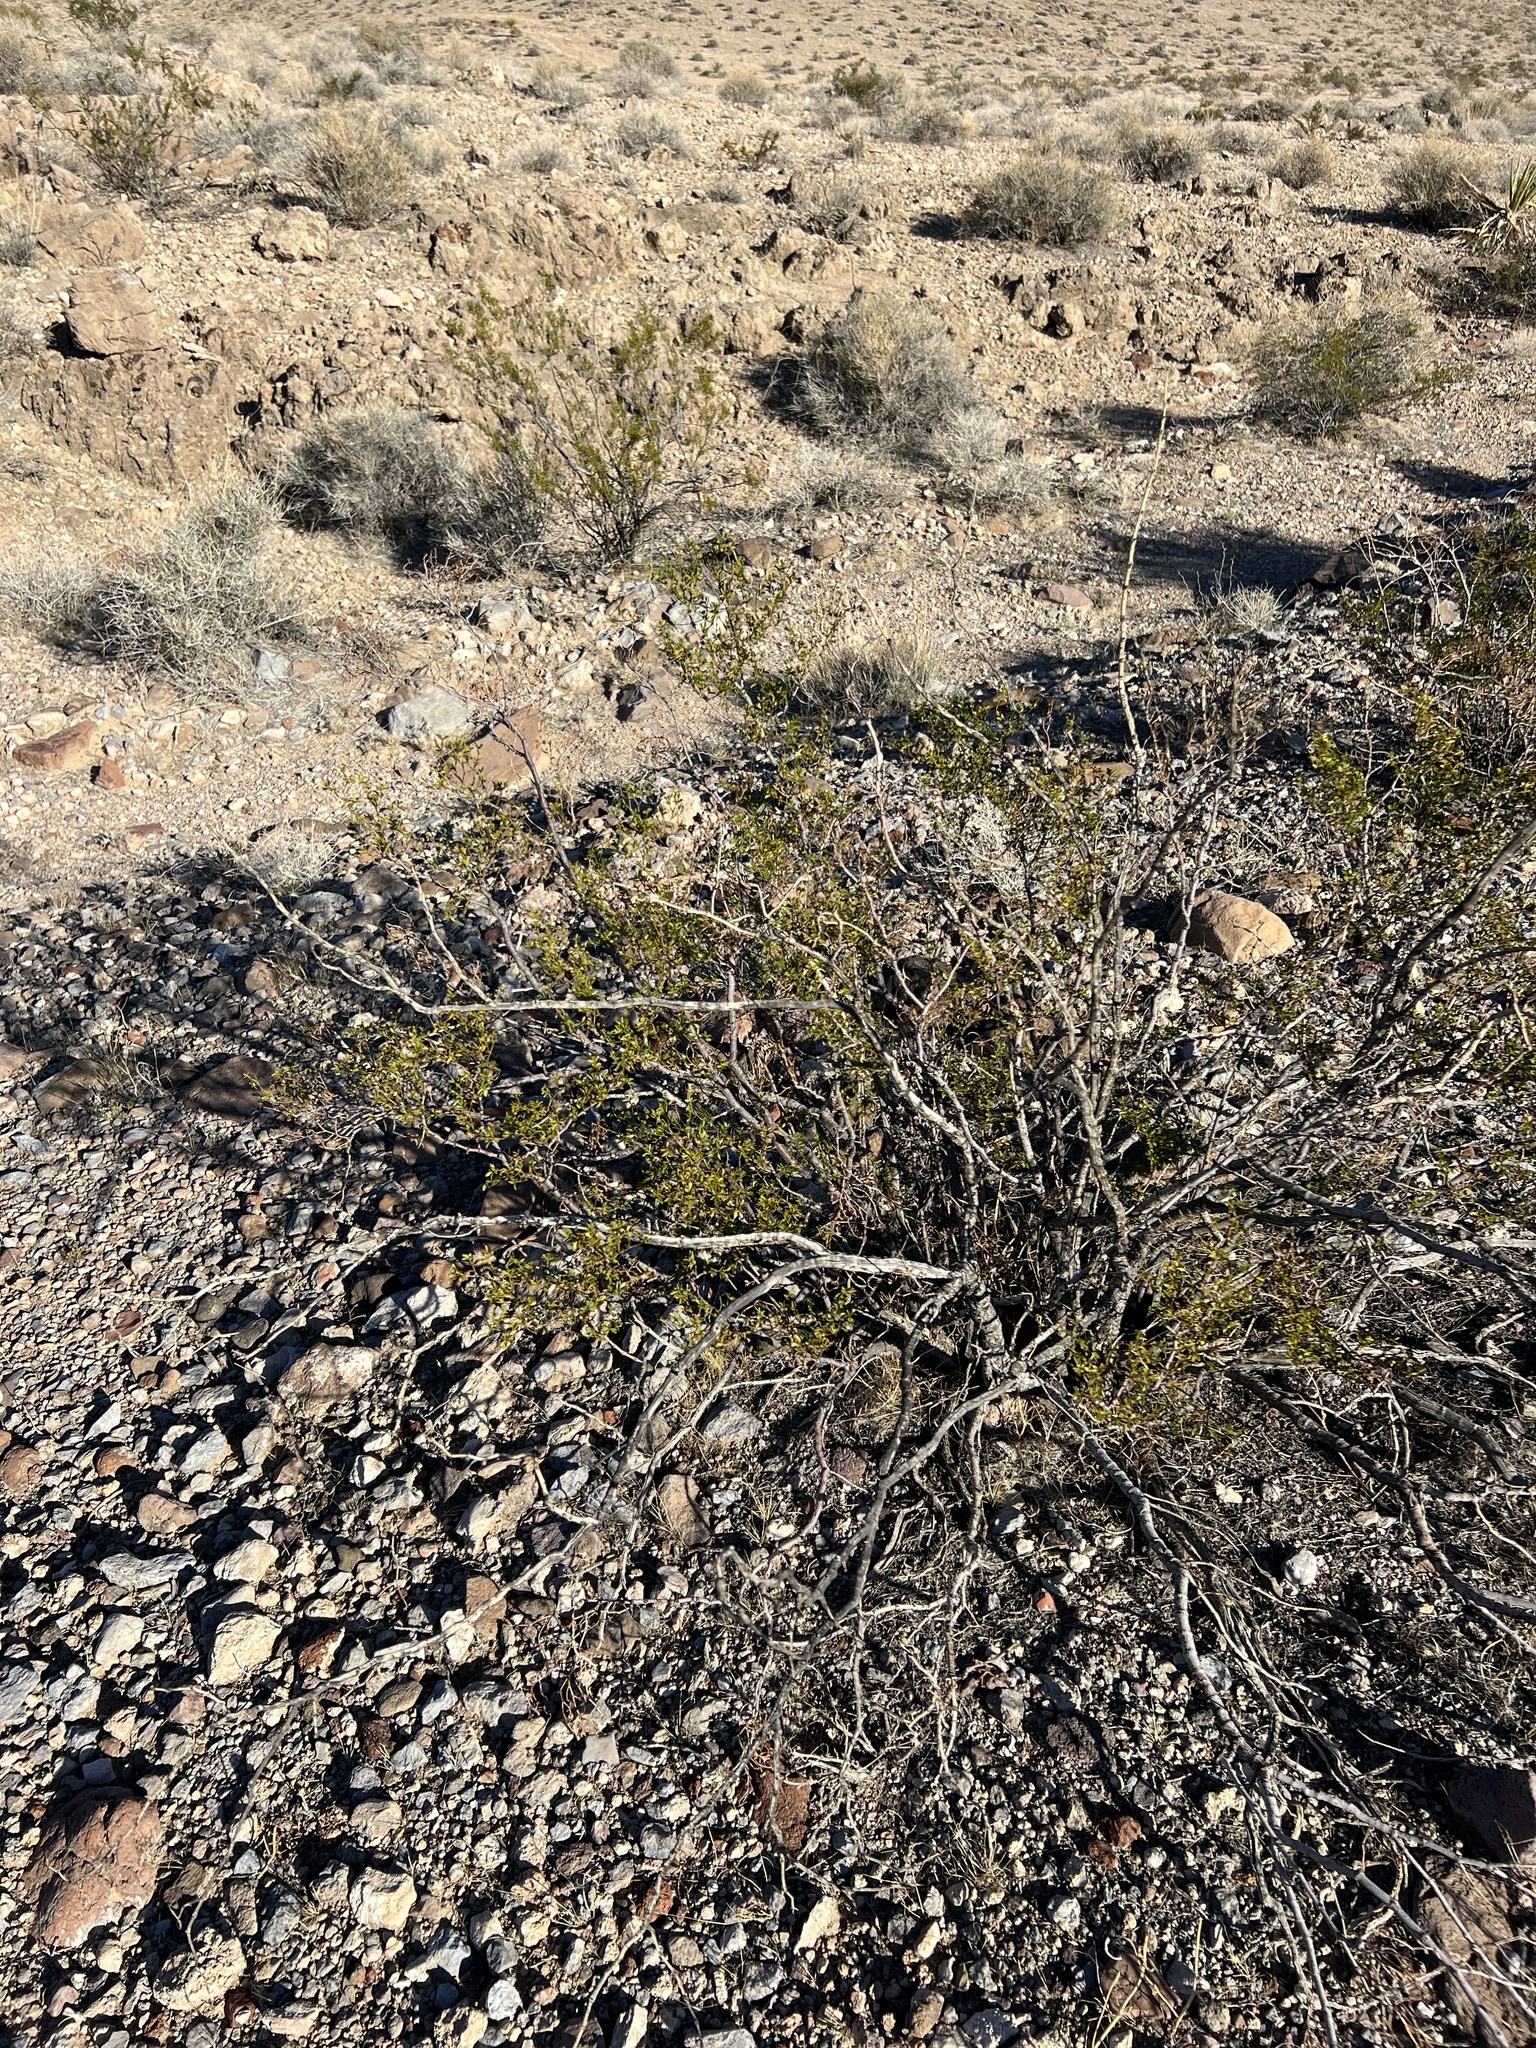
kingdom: Plantae
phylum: Tracheophyta
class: Magnoliopsida
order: Zygophyllales
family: Zygophyllaceae
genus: Larrea
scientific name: Larrea tridentata
